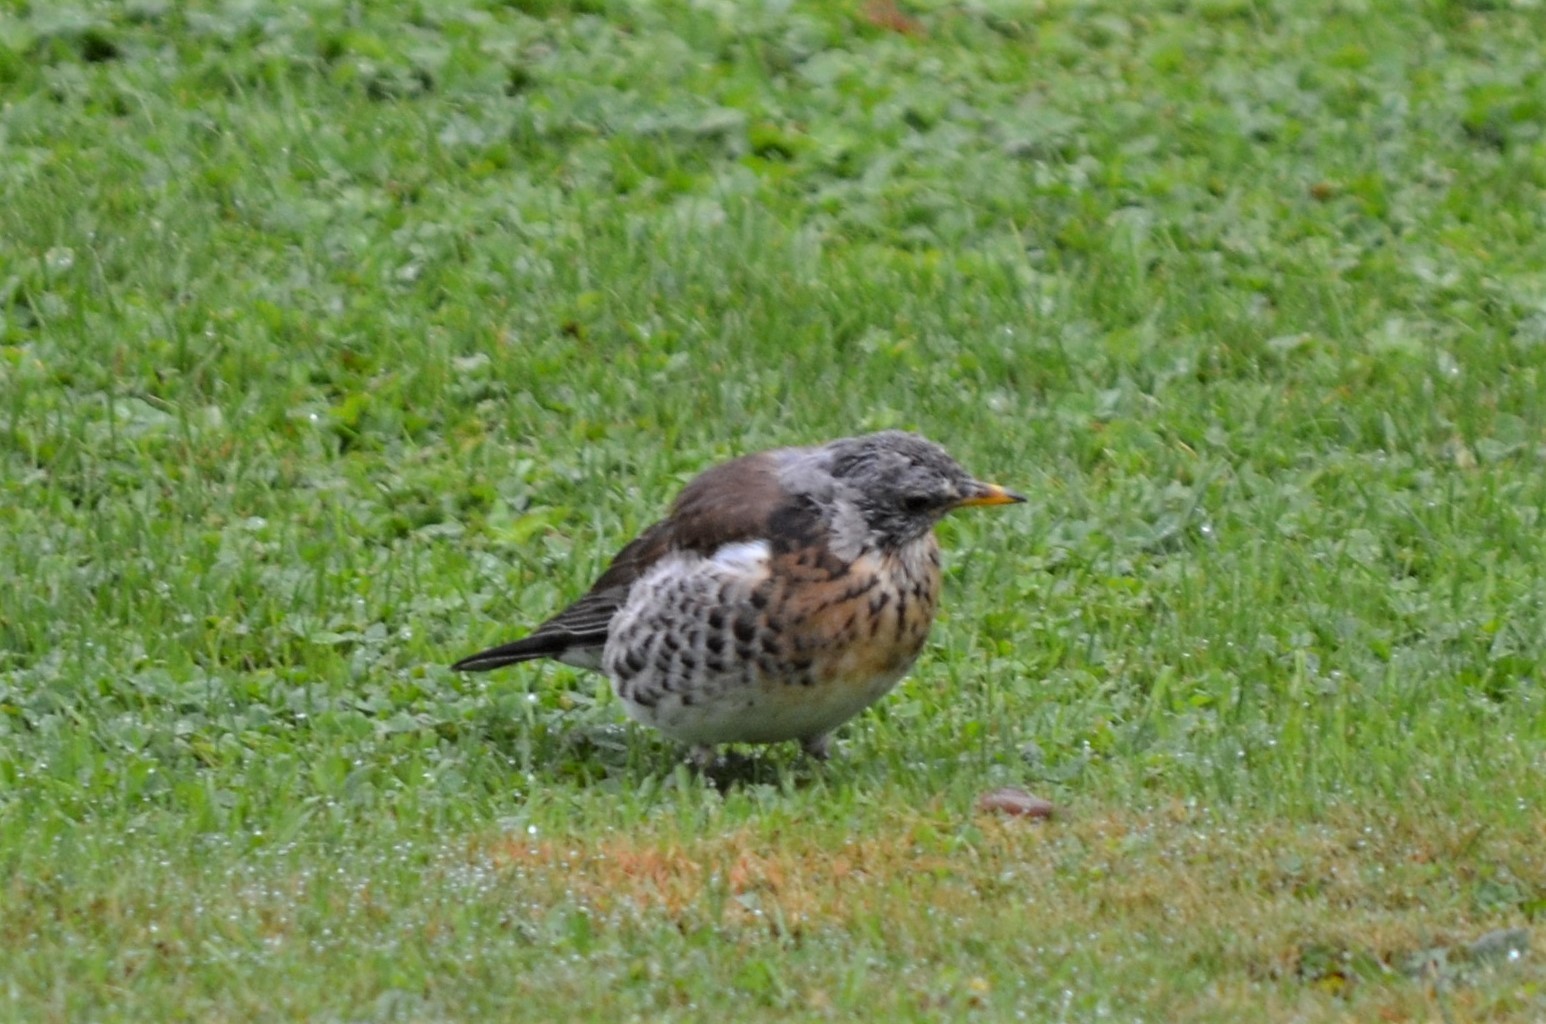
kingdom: Animalia
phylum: Chordata
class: Aves
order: Passeriformes
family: Turdidae
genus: Turdus
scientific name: Turdus pilaris
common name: Fieldfare
